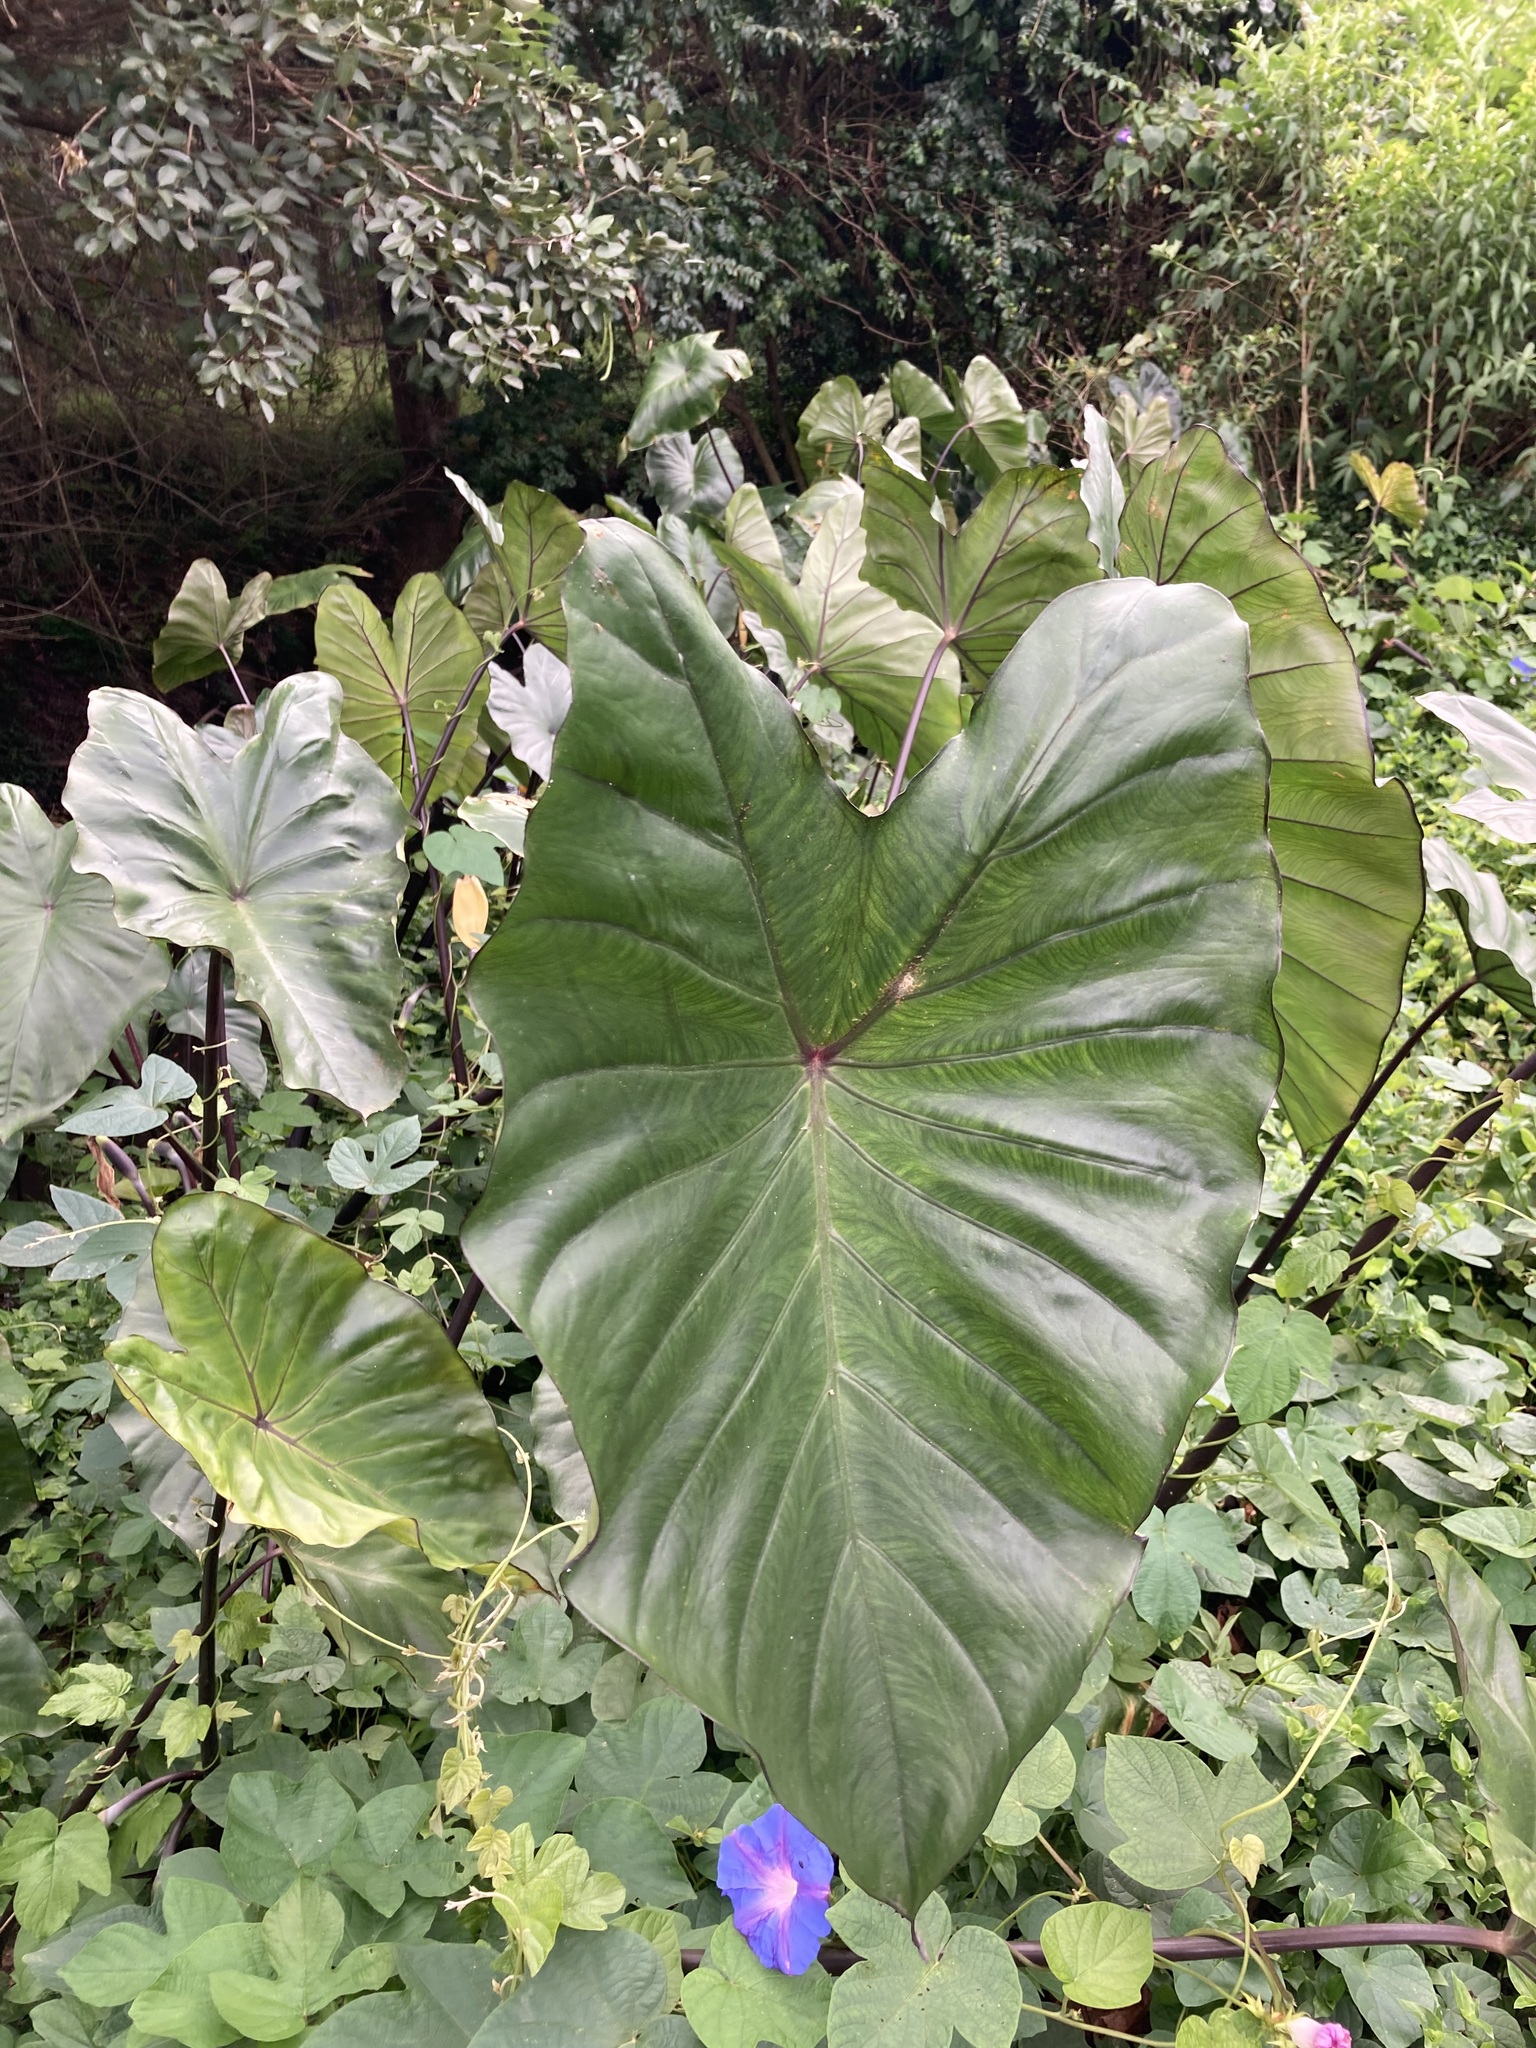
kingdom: Plantae
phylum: Tracheophyta
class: Liliopsida
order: Alismatales
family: Araceae
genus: Colocasia
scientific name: Colocasia fontanesii
